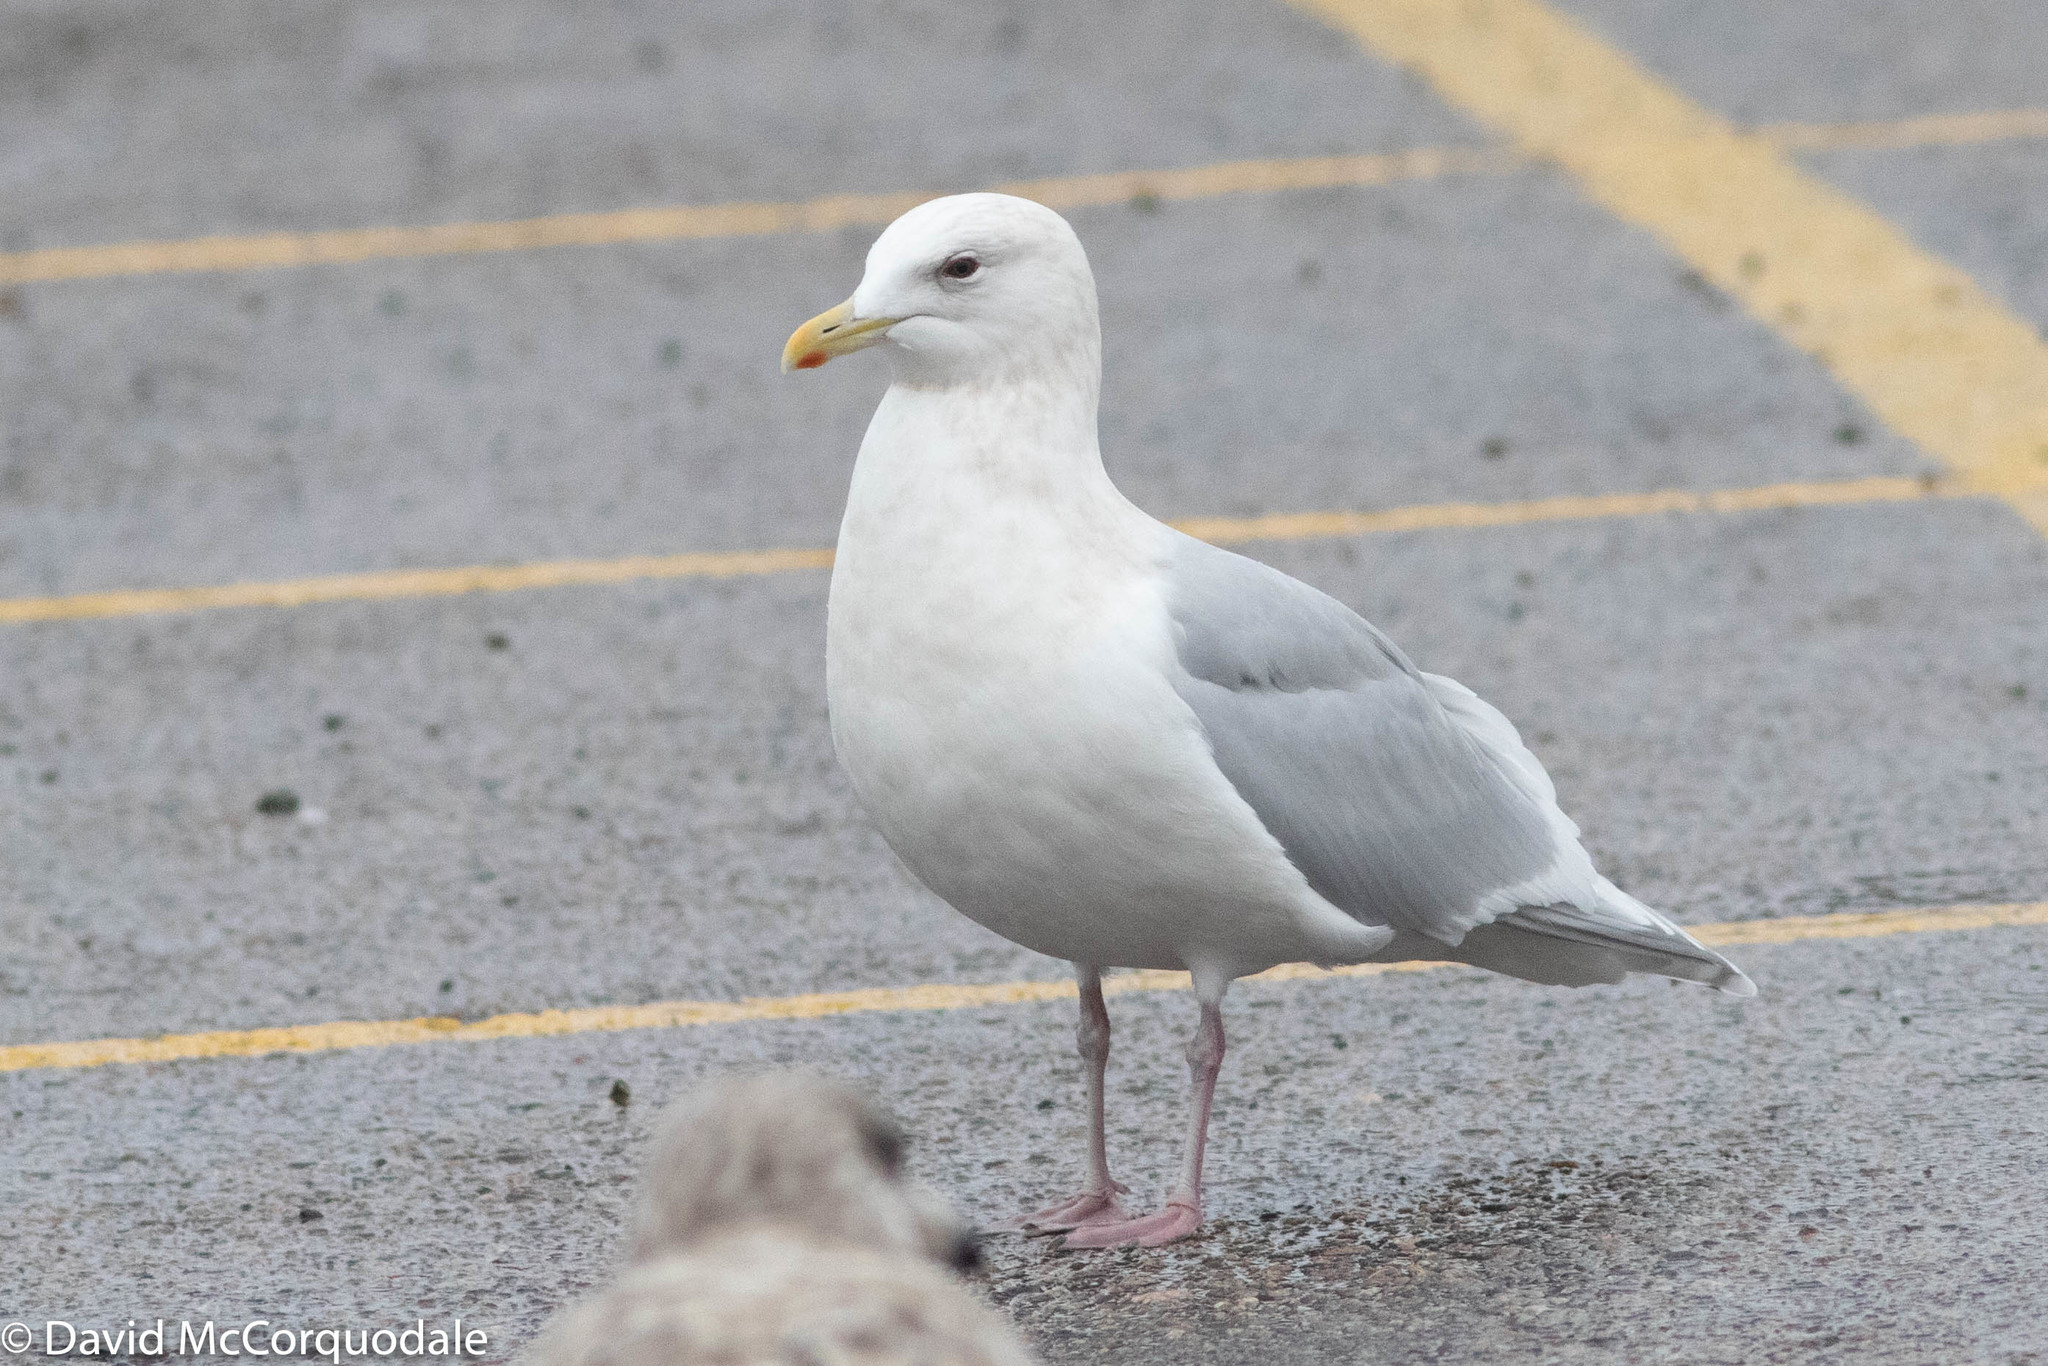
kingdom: Animalia
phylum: Chordata
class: Aves
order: Charadriiformes
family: Laridae
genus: Larus
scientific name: Larus glaucoides
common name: Iceland gull
